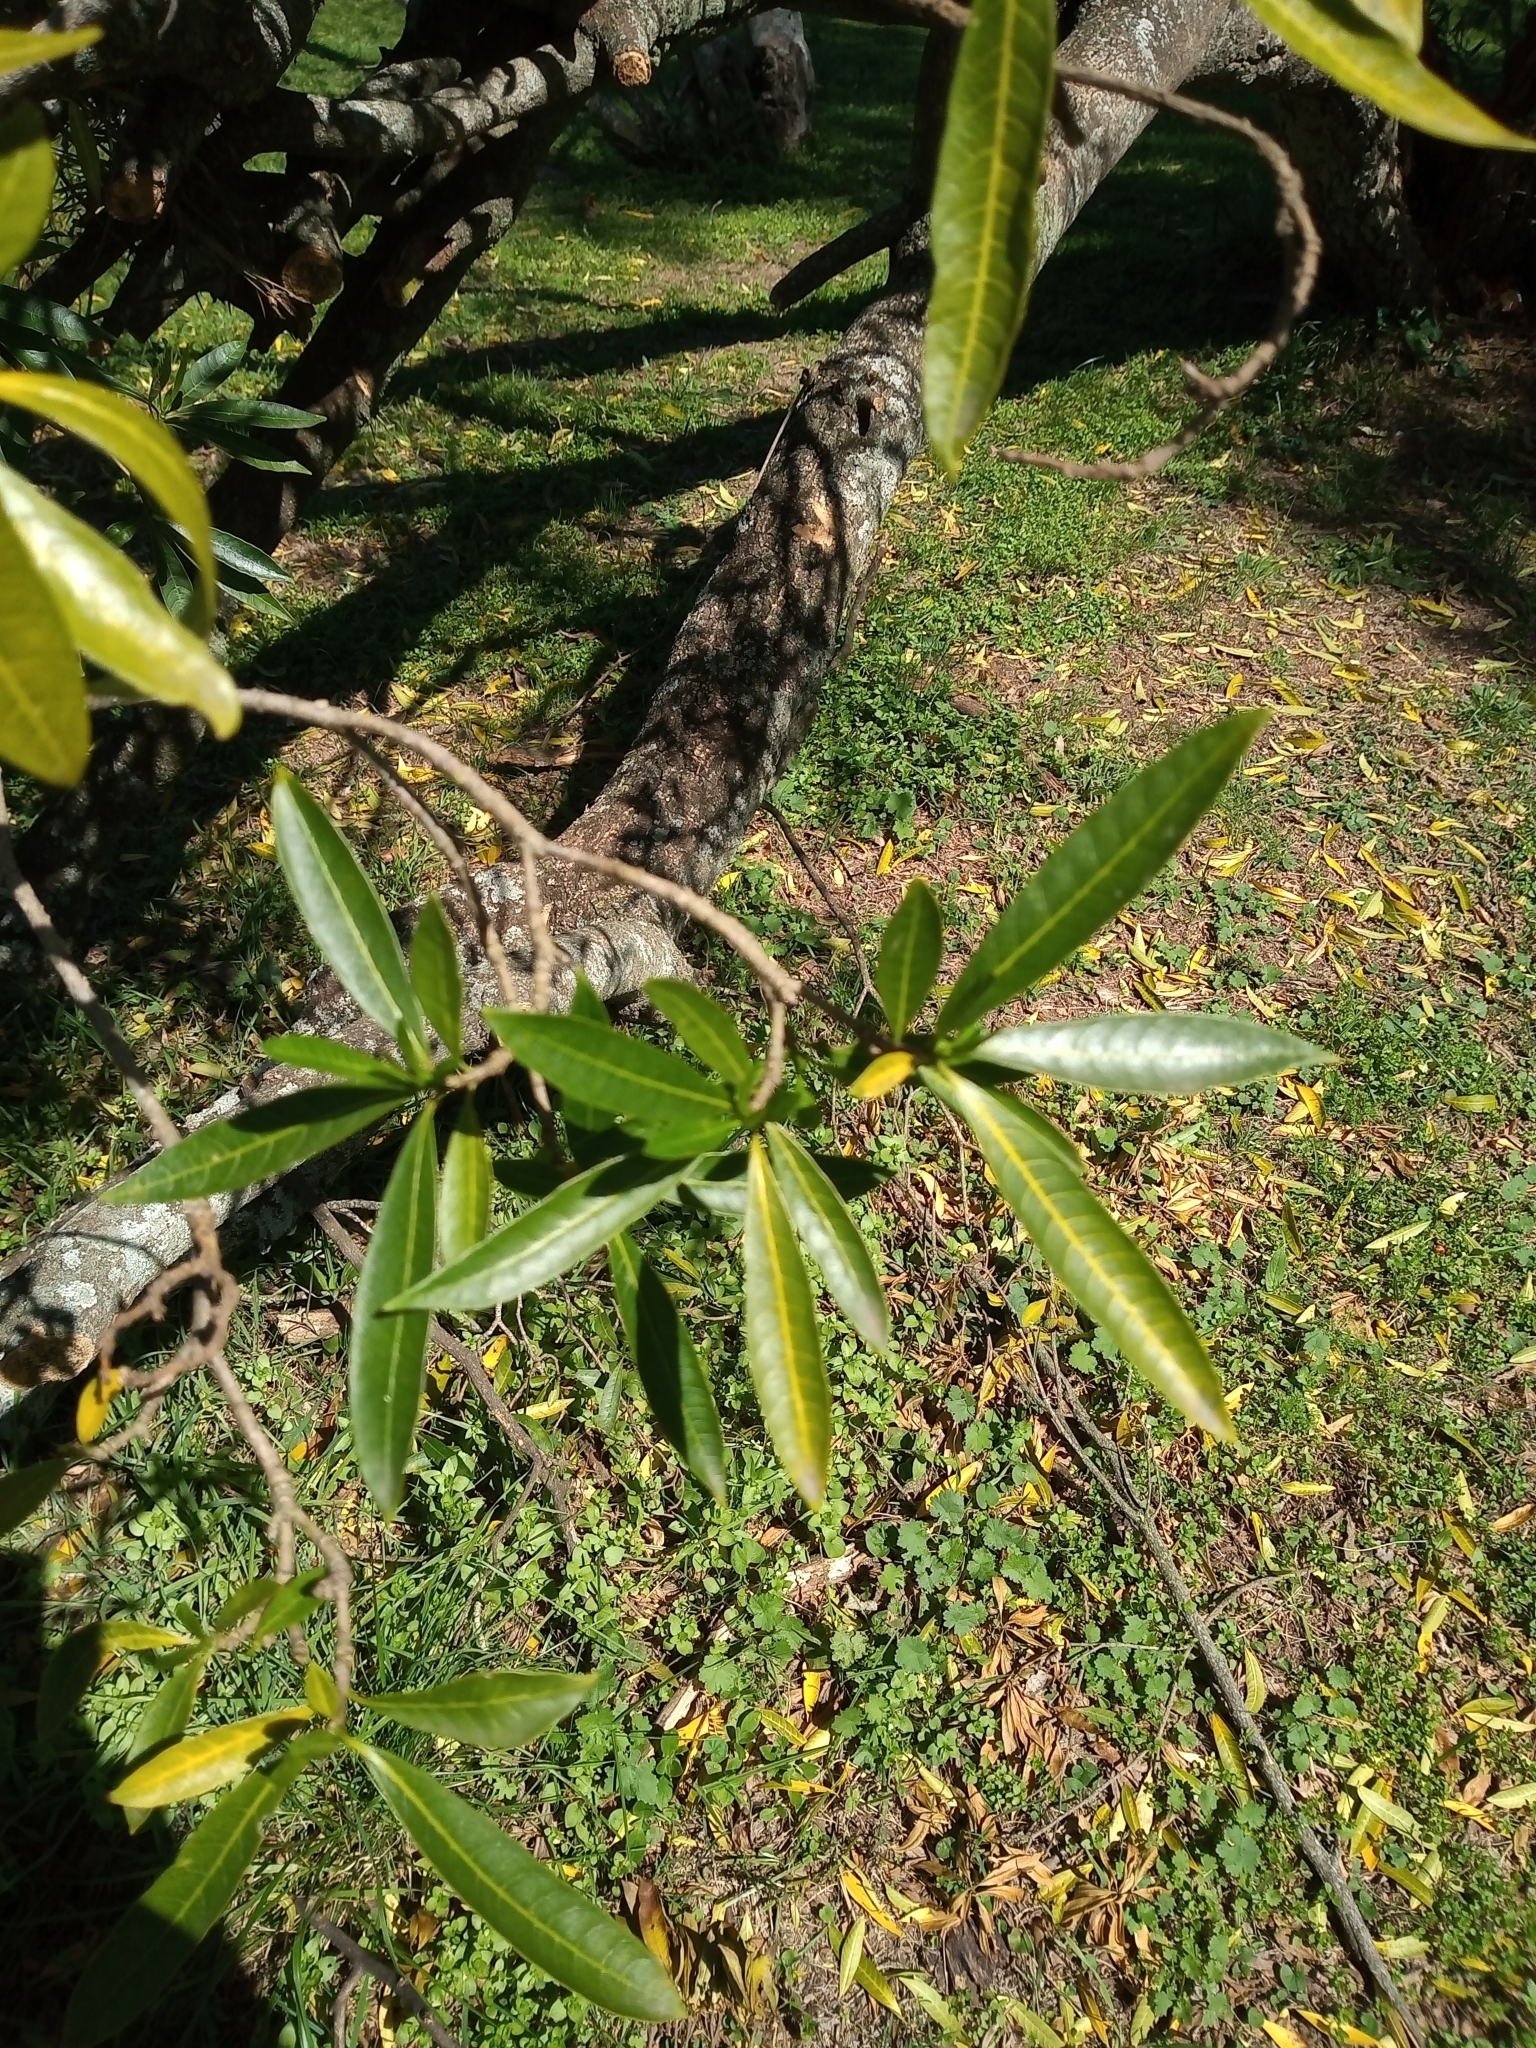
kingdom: Plantae
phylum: Tracheophyta
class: Magnoliopsida
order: Gentianales
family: Apocynaceae
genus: Tabernaemontana
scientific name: Tabernaemontana catharinensis
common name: Pinwheel-flower
